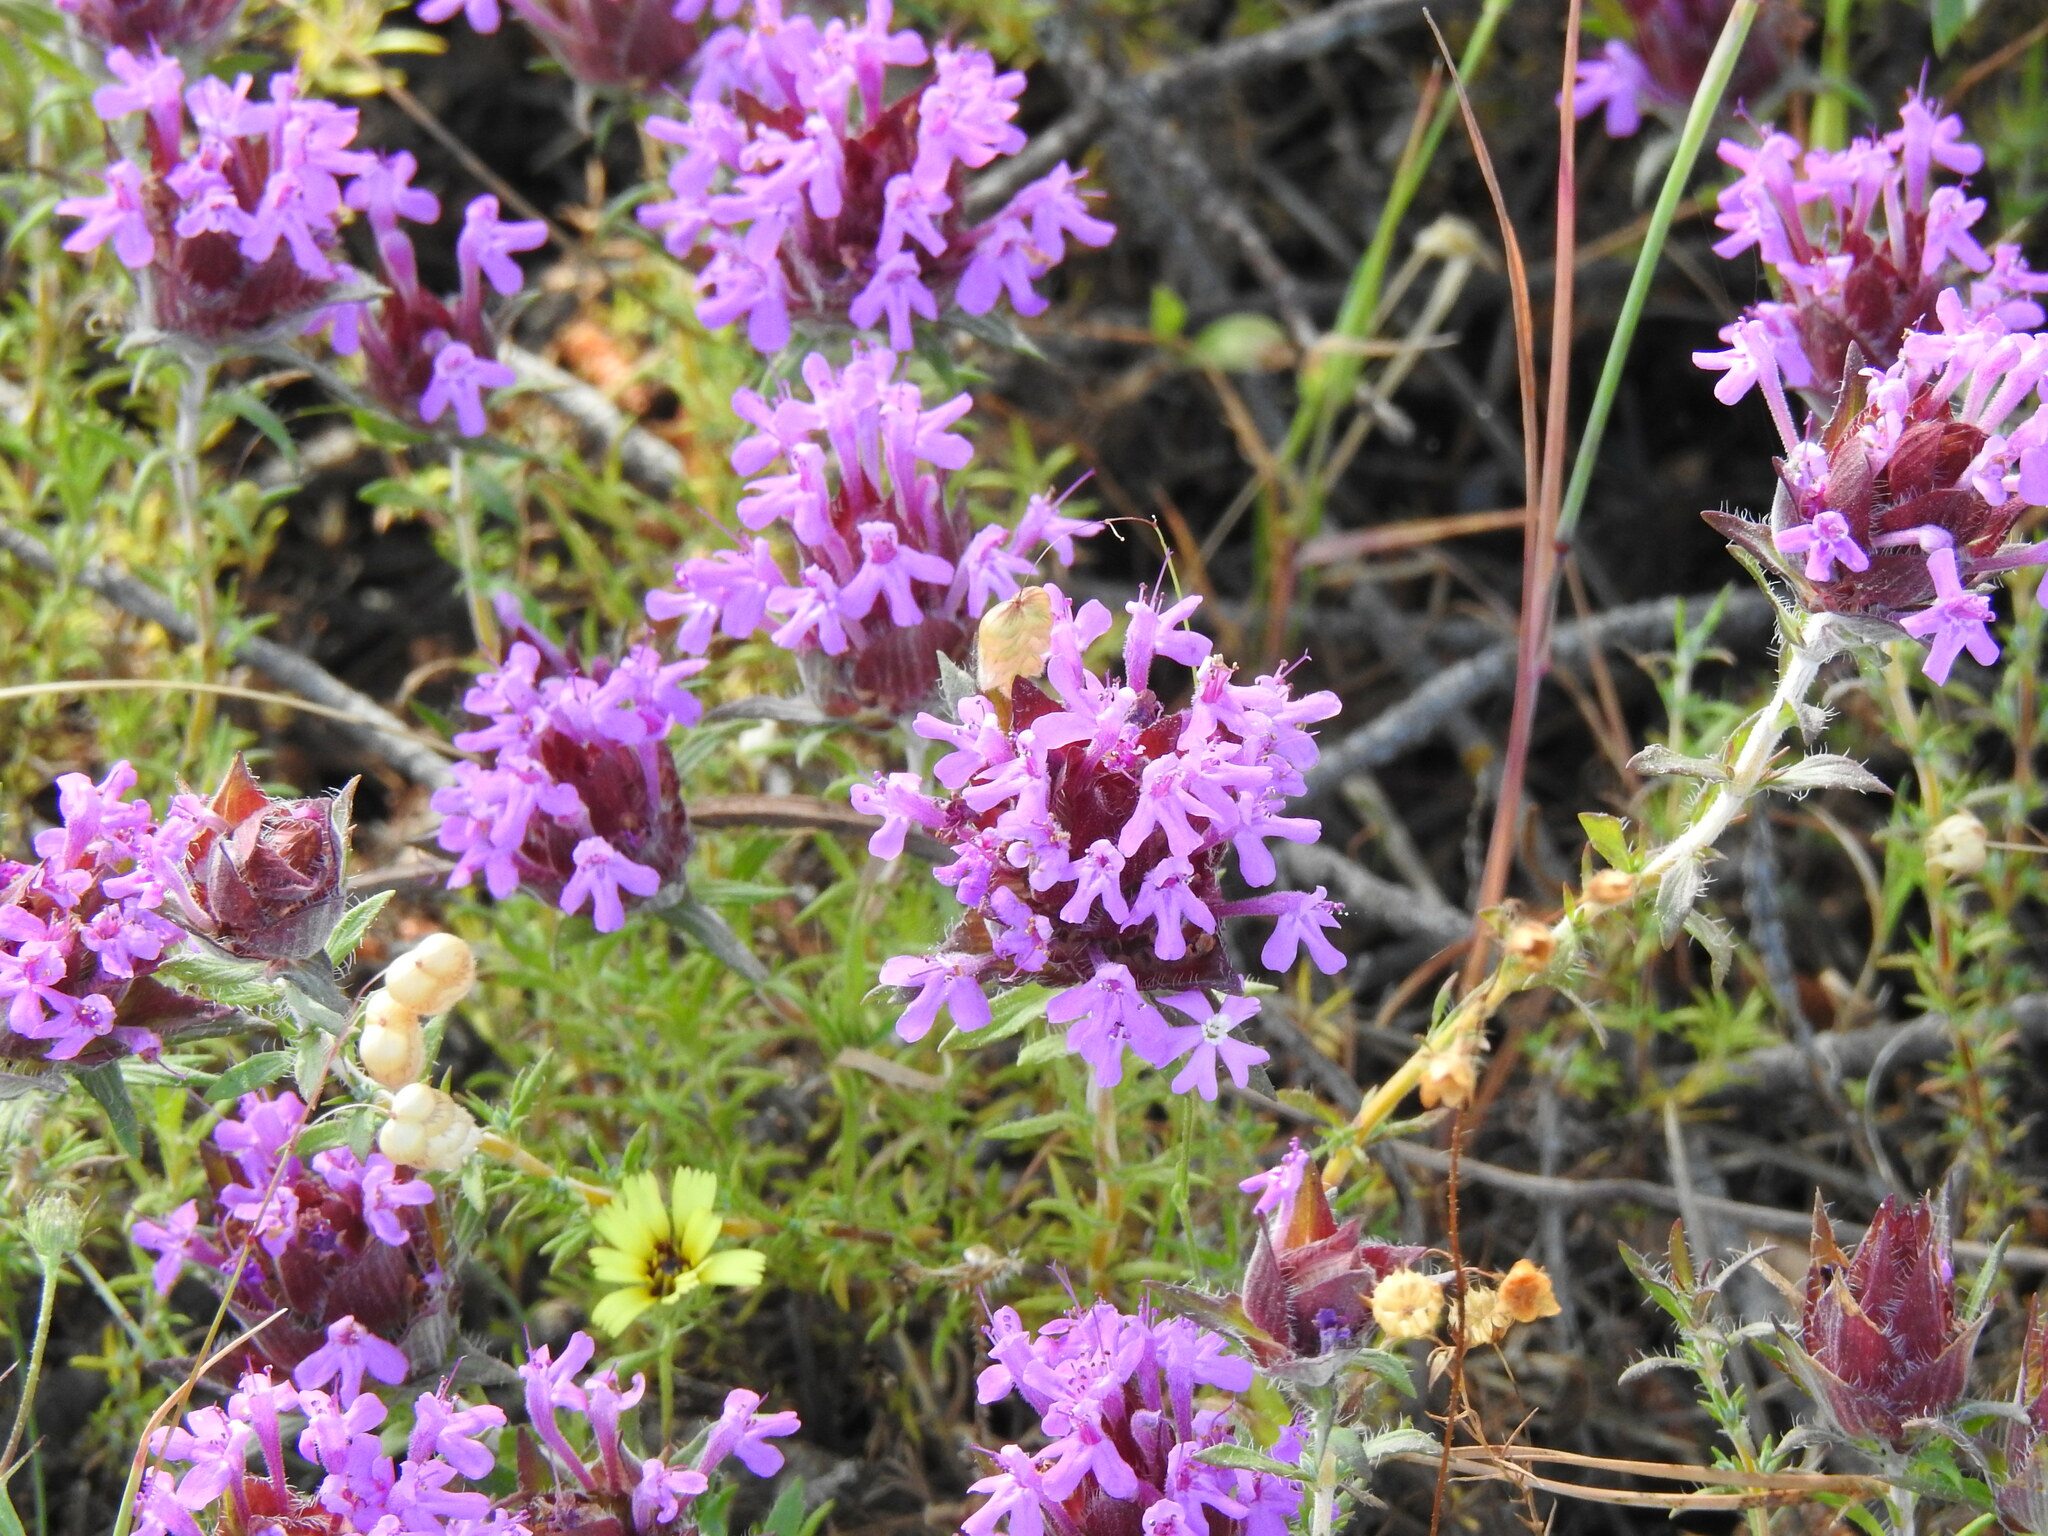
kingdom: Plantae
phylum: Tracheophyta
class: Magnoliopsida
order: Lamiales
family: Lamiaceae
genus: Thymus
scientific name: Thymus lotocephalus
